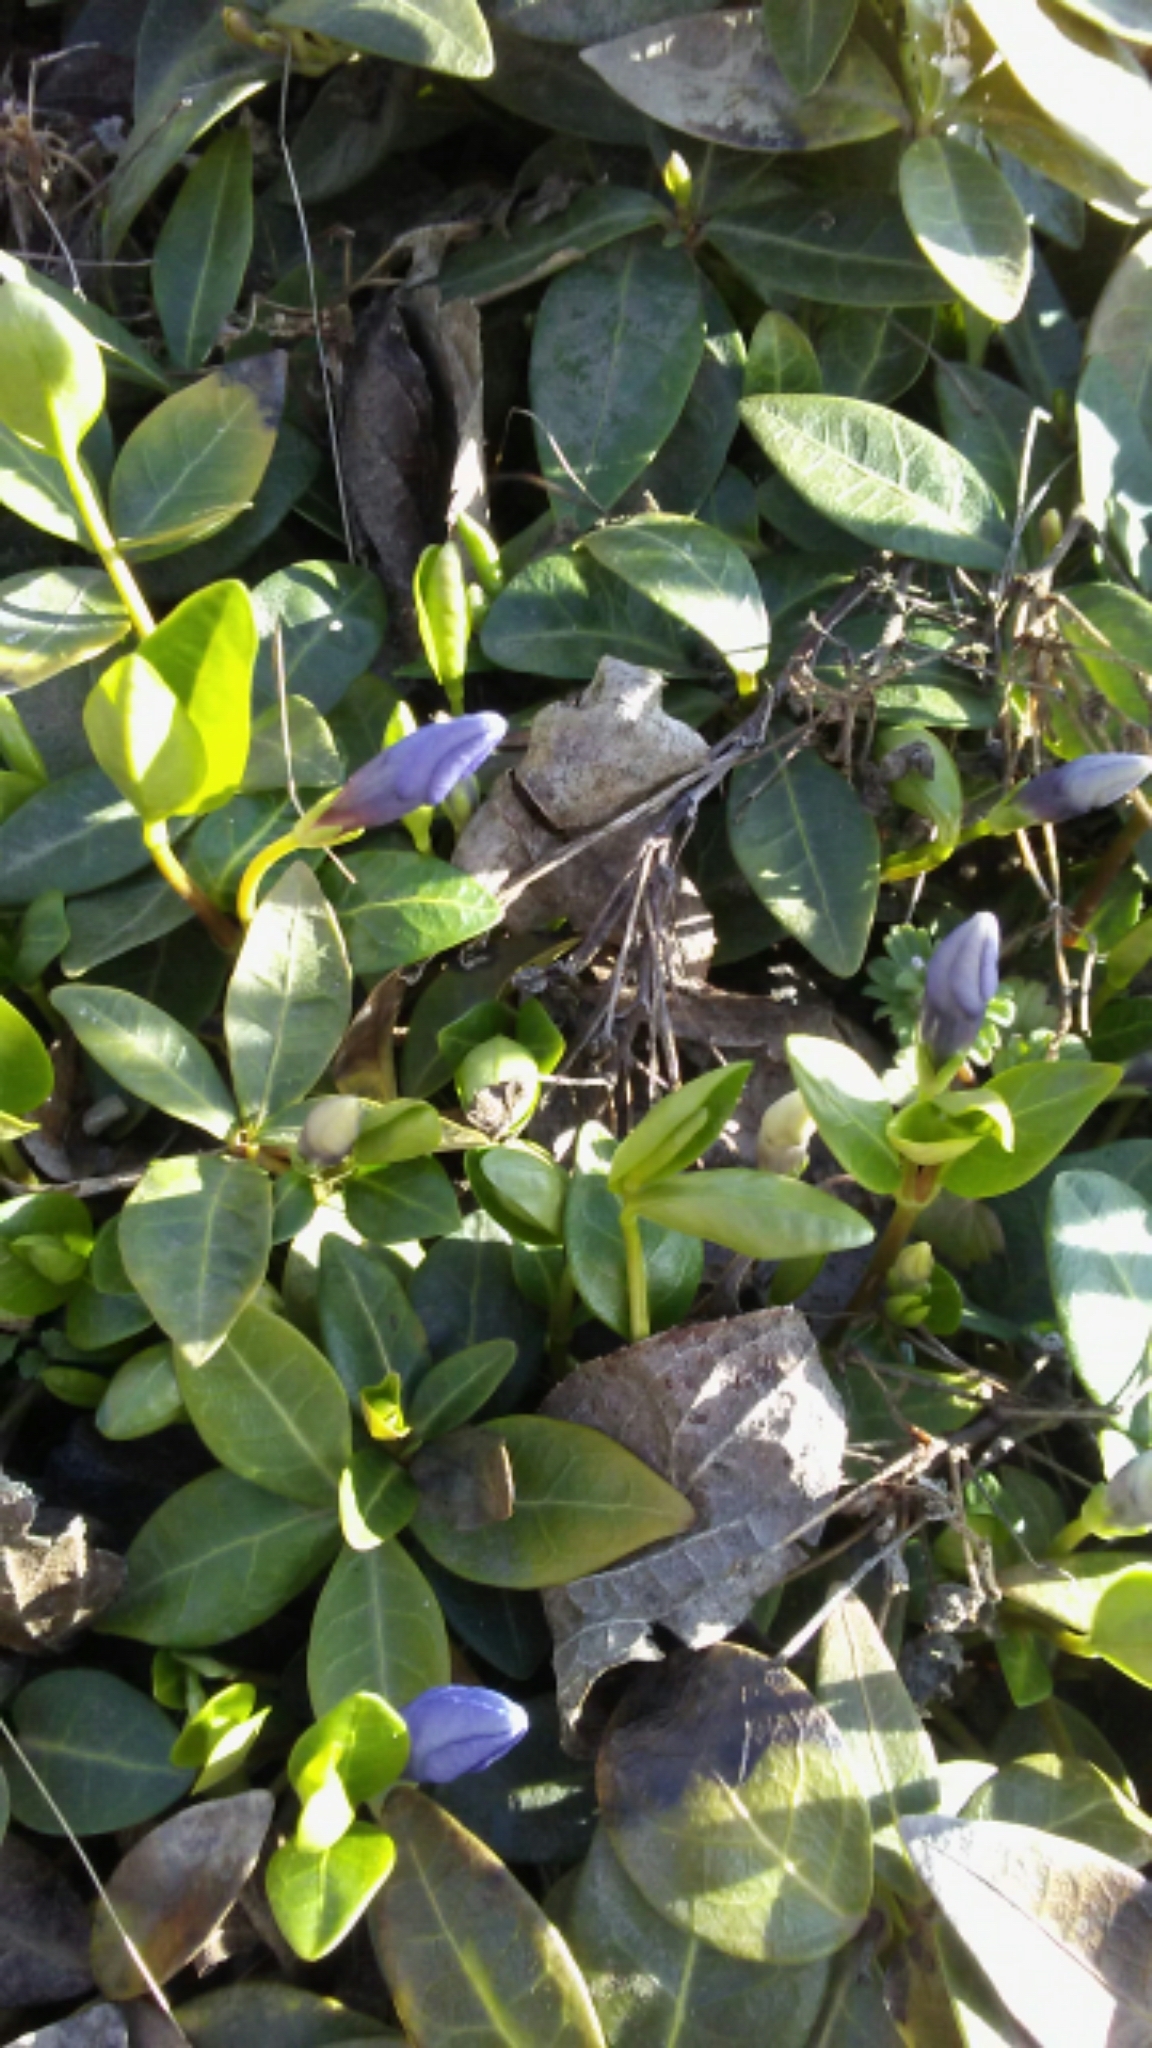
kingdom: Plantae
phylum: Tracheophyta
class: Magnoliopsida
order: Gentianales
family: Apocynaceae
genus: Vinca
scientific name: Vinca minor
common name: Lesser periwinkle
